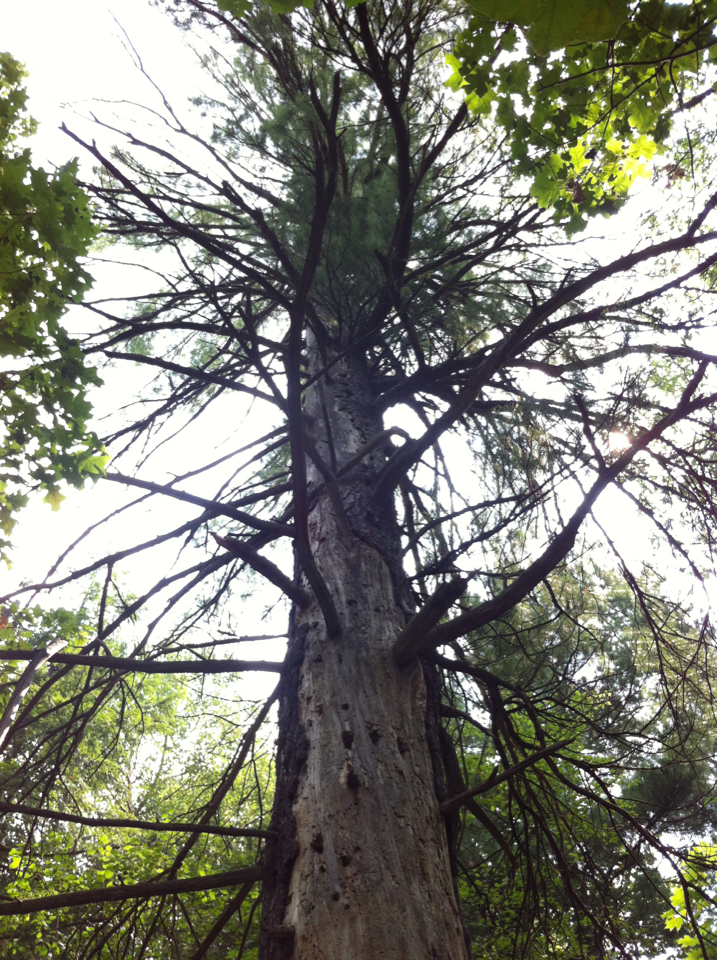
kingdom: Plantae
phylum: Tracheophyta
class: Pinopsida
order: Pinales
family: Pinaceae
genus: Pinus
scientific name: Pinus strobus
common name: Weymouth pine
